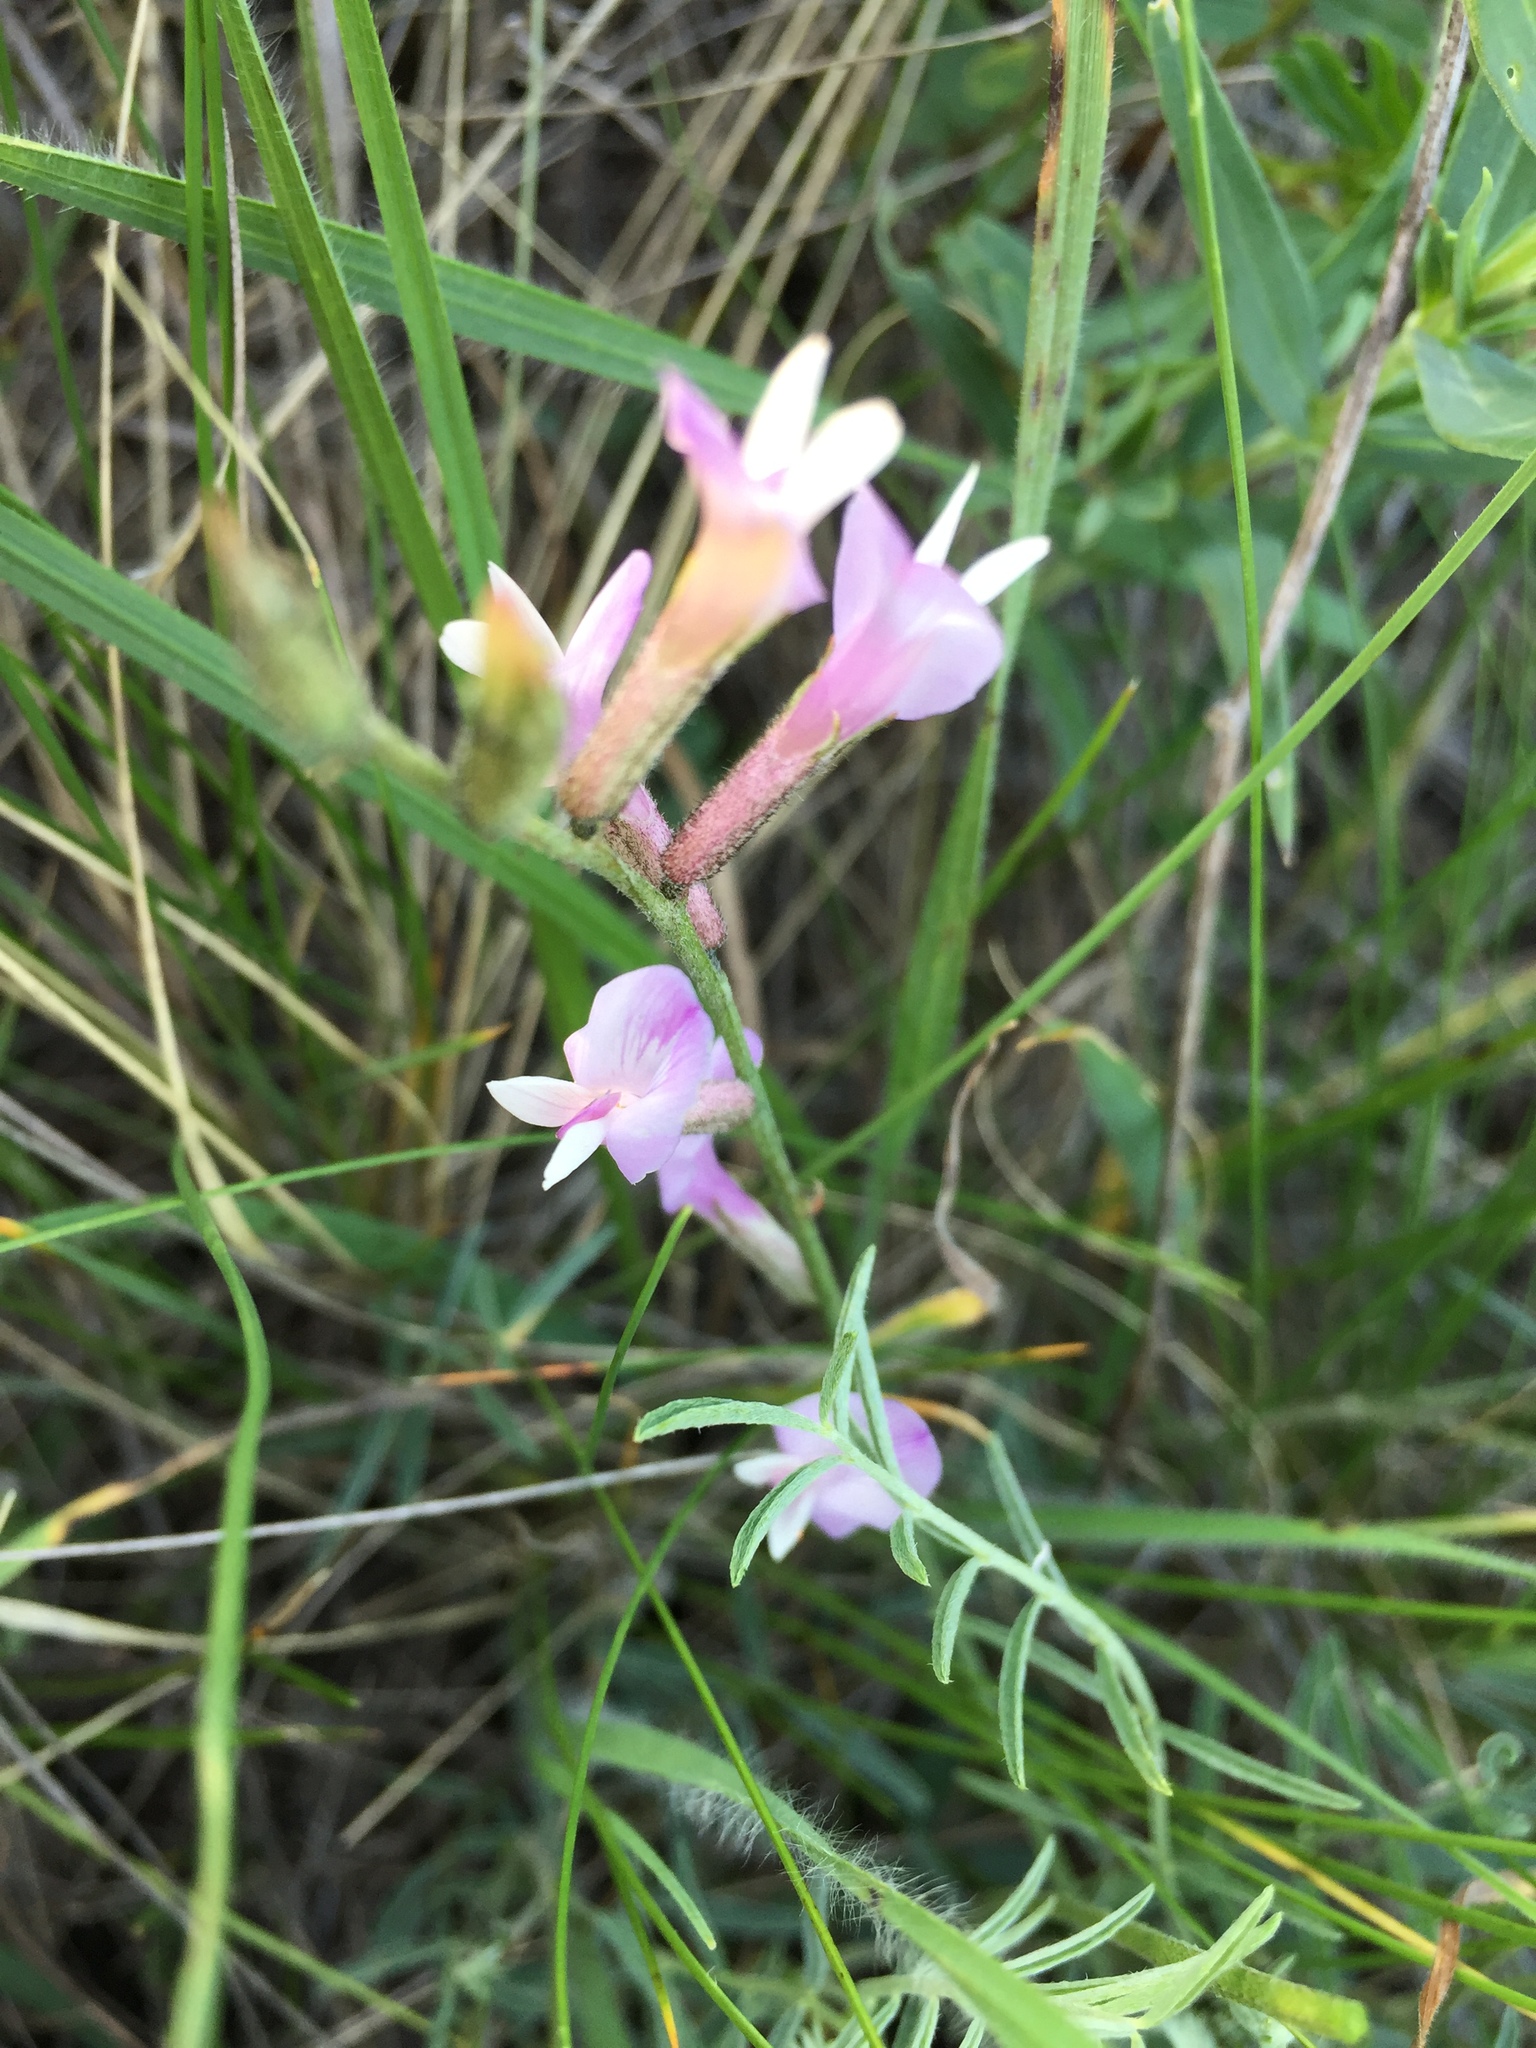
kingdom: Plantae
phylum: Tracheophyta
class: Magnoliopsida
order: Fabales
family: Fabaceae
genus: Astragalus
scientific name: Astragalus ucrainicus
